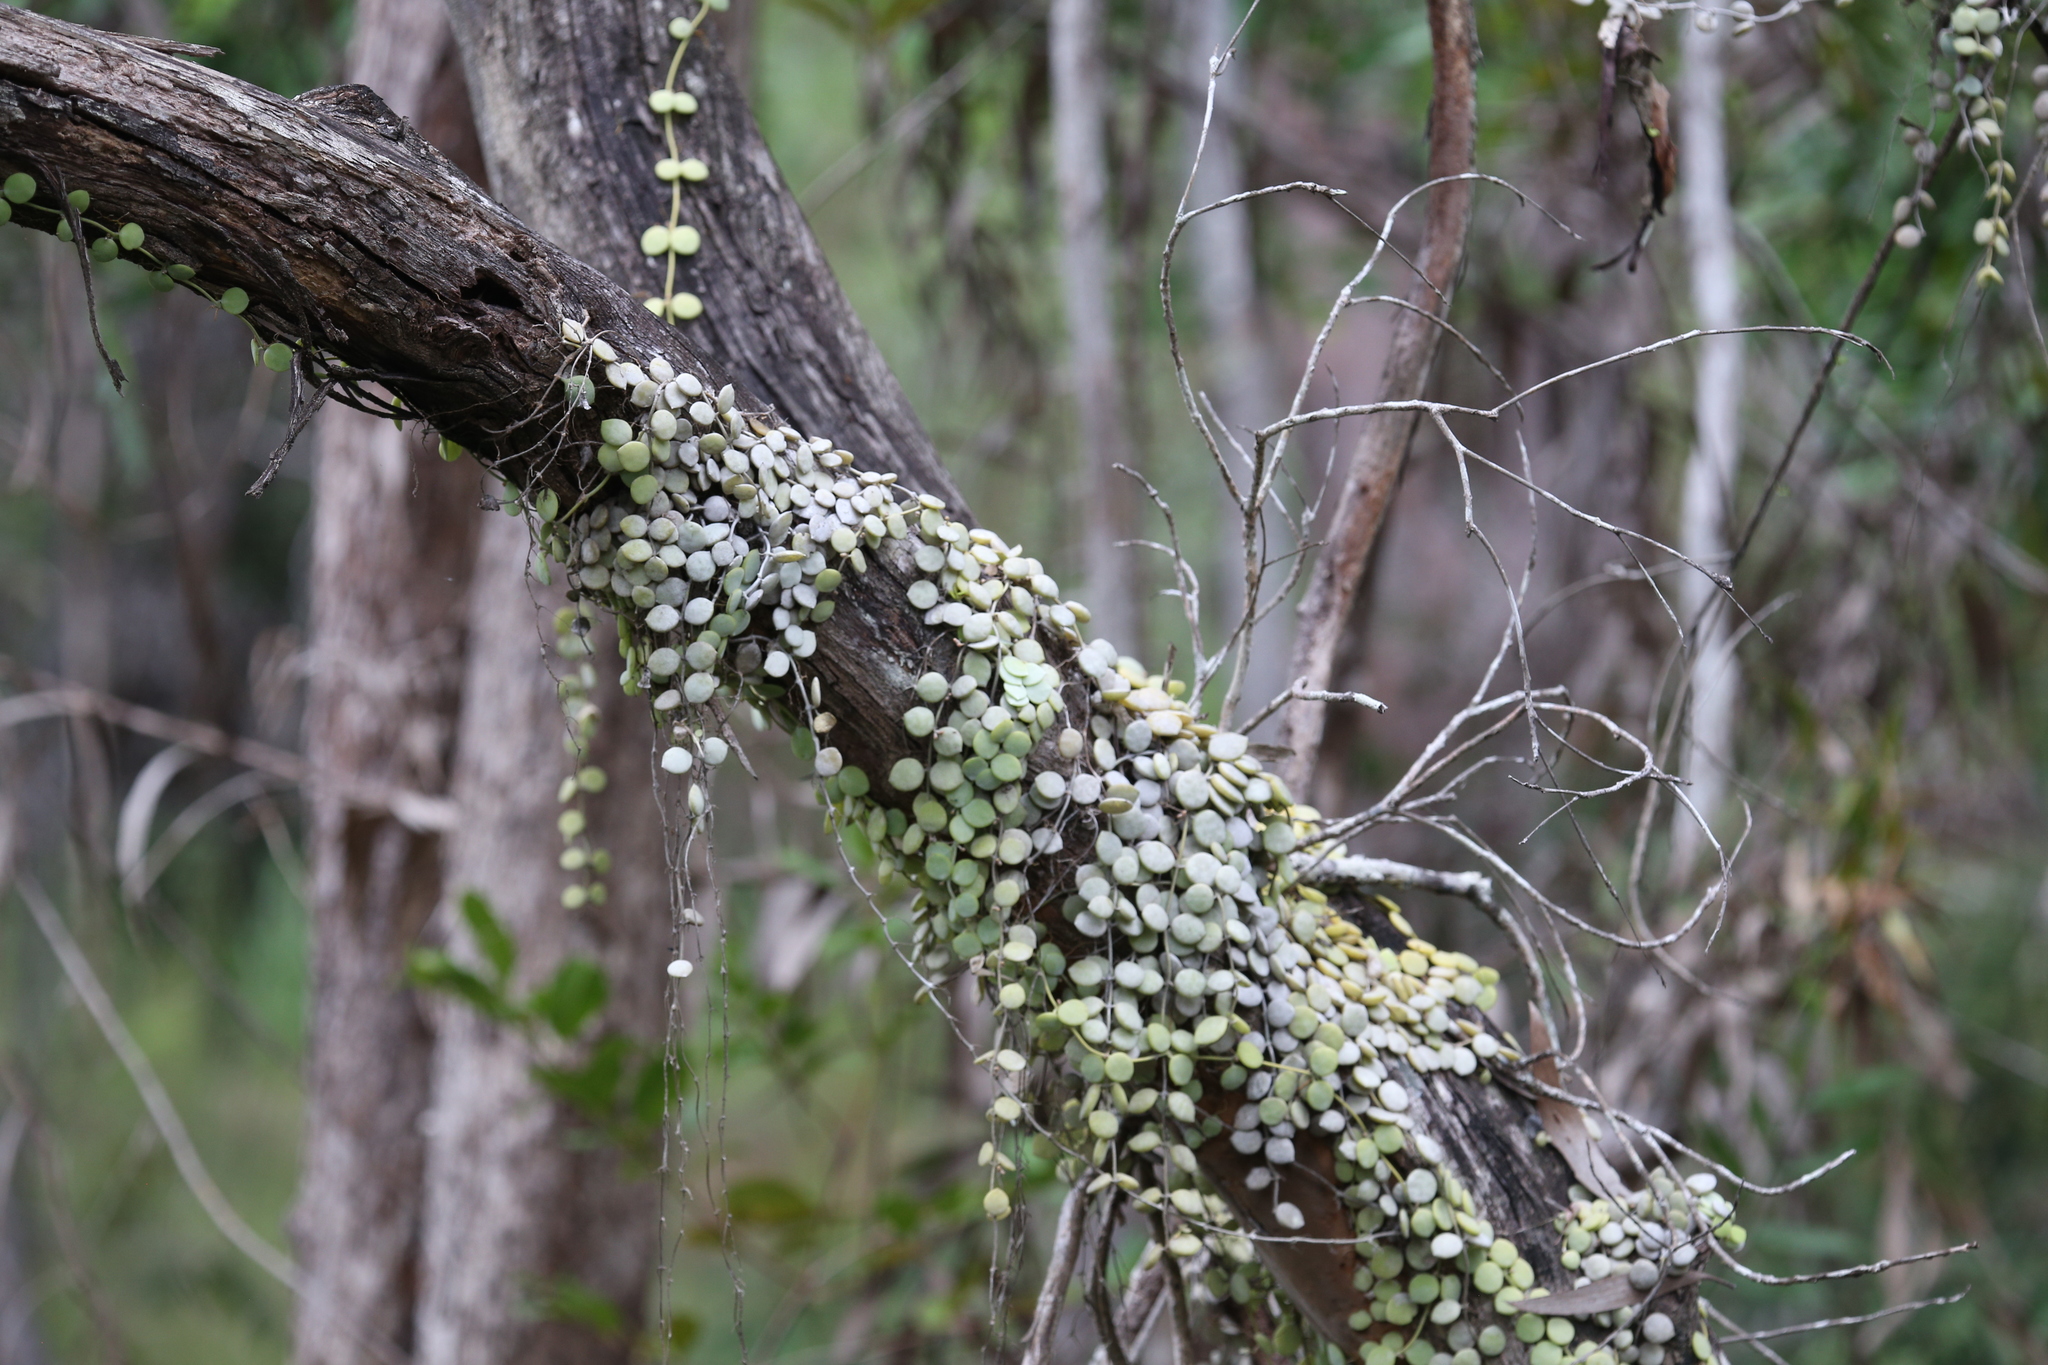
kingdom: Plantae
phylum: Tracheophyta
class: Magnoliopsida
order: Gentianales
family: Apocynaceae
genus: Dischidia
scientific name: Dischidia nummularia
